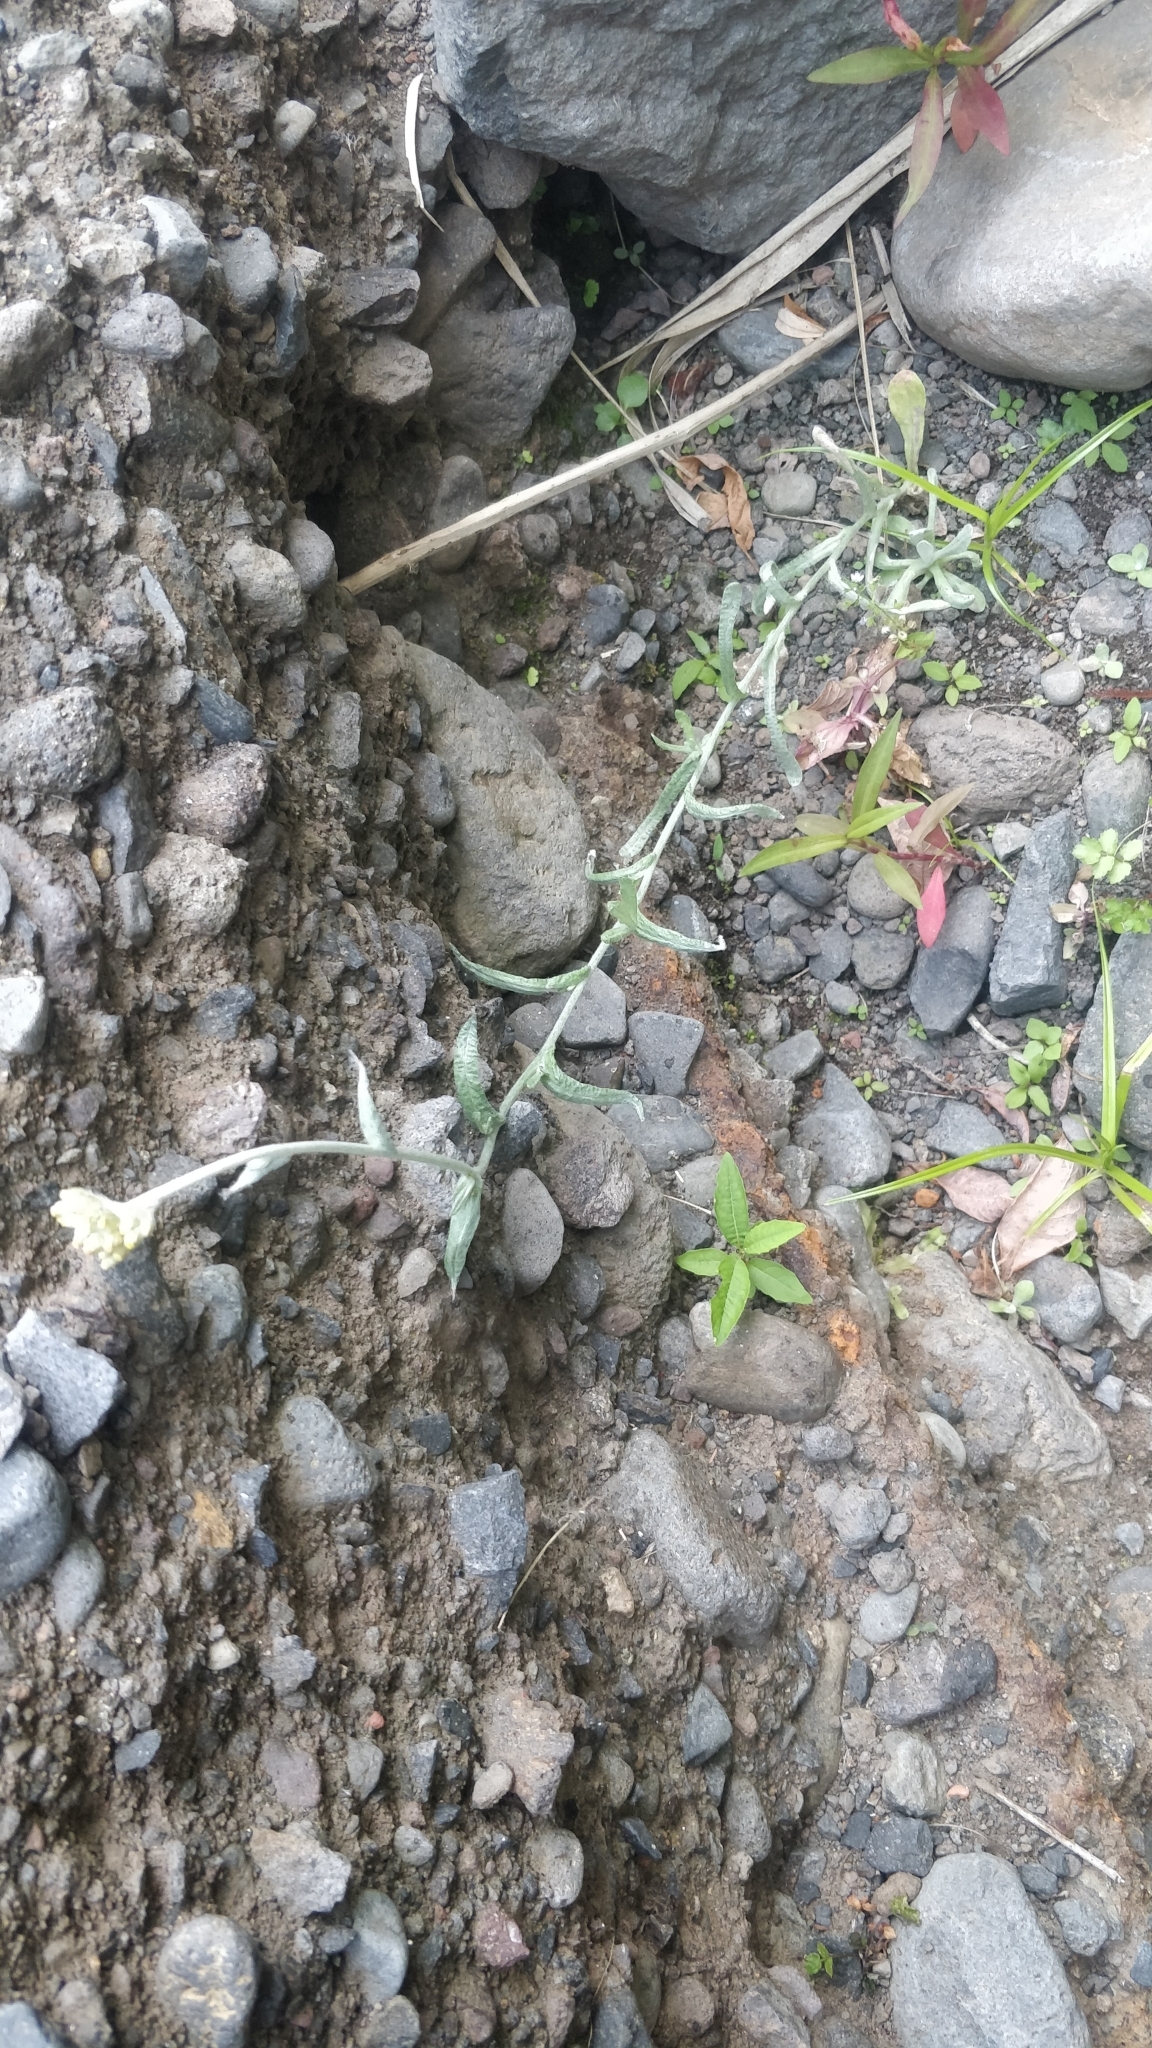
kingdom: Plantae
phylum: Tracheophyta
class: Magnoliopsida
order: Asterales
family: Asteraceae
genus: Helichrysum
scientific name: Helichrysum luteoalbum
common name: Daisy
